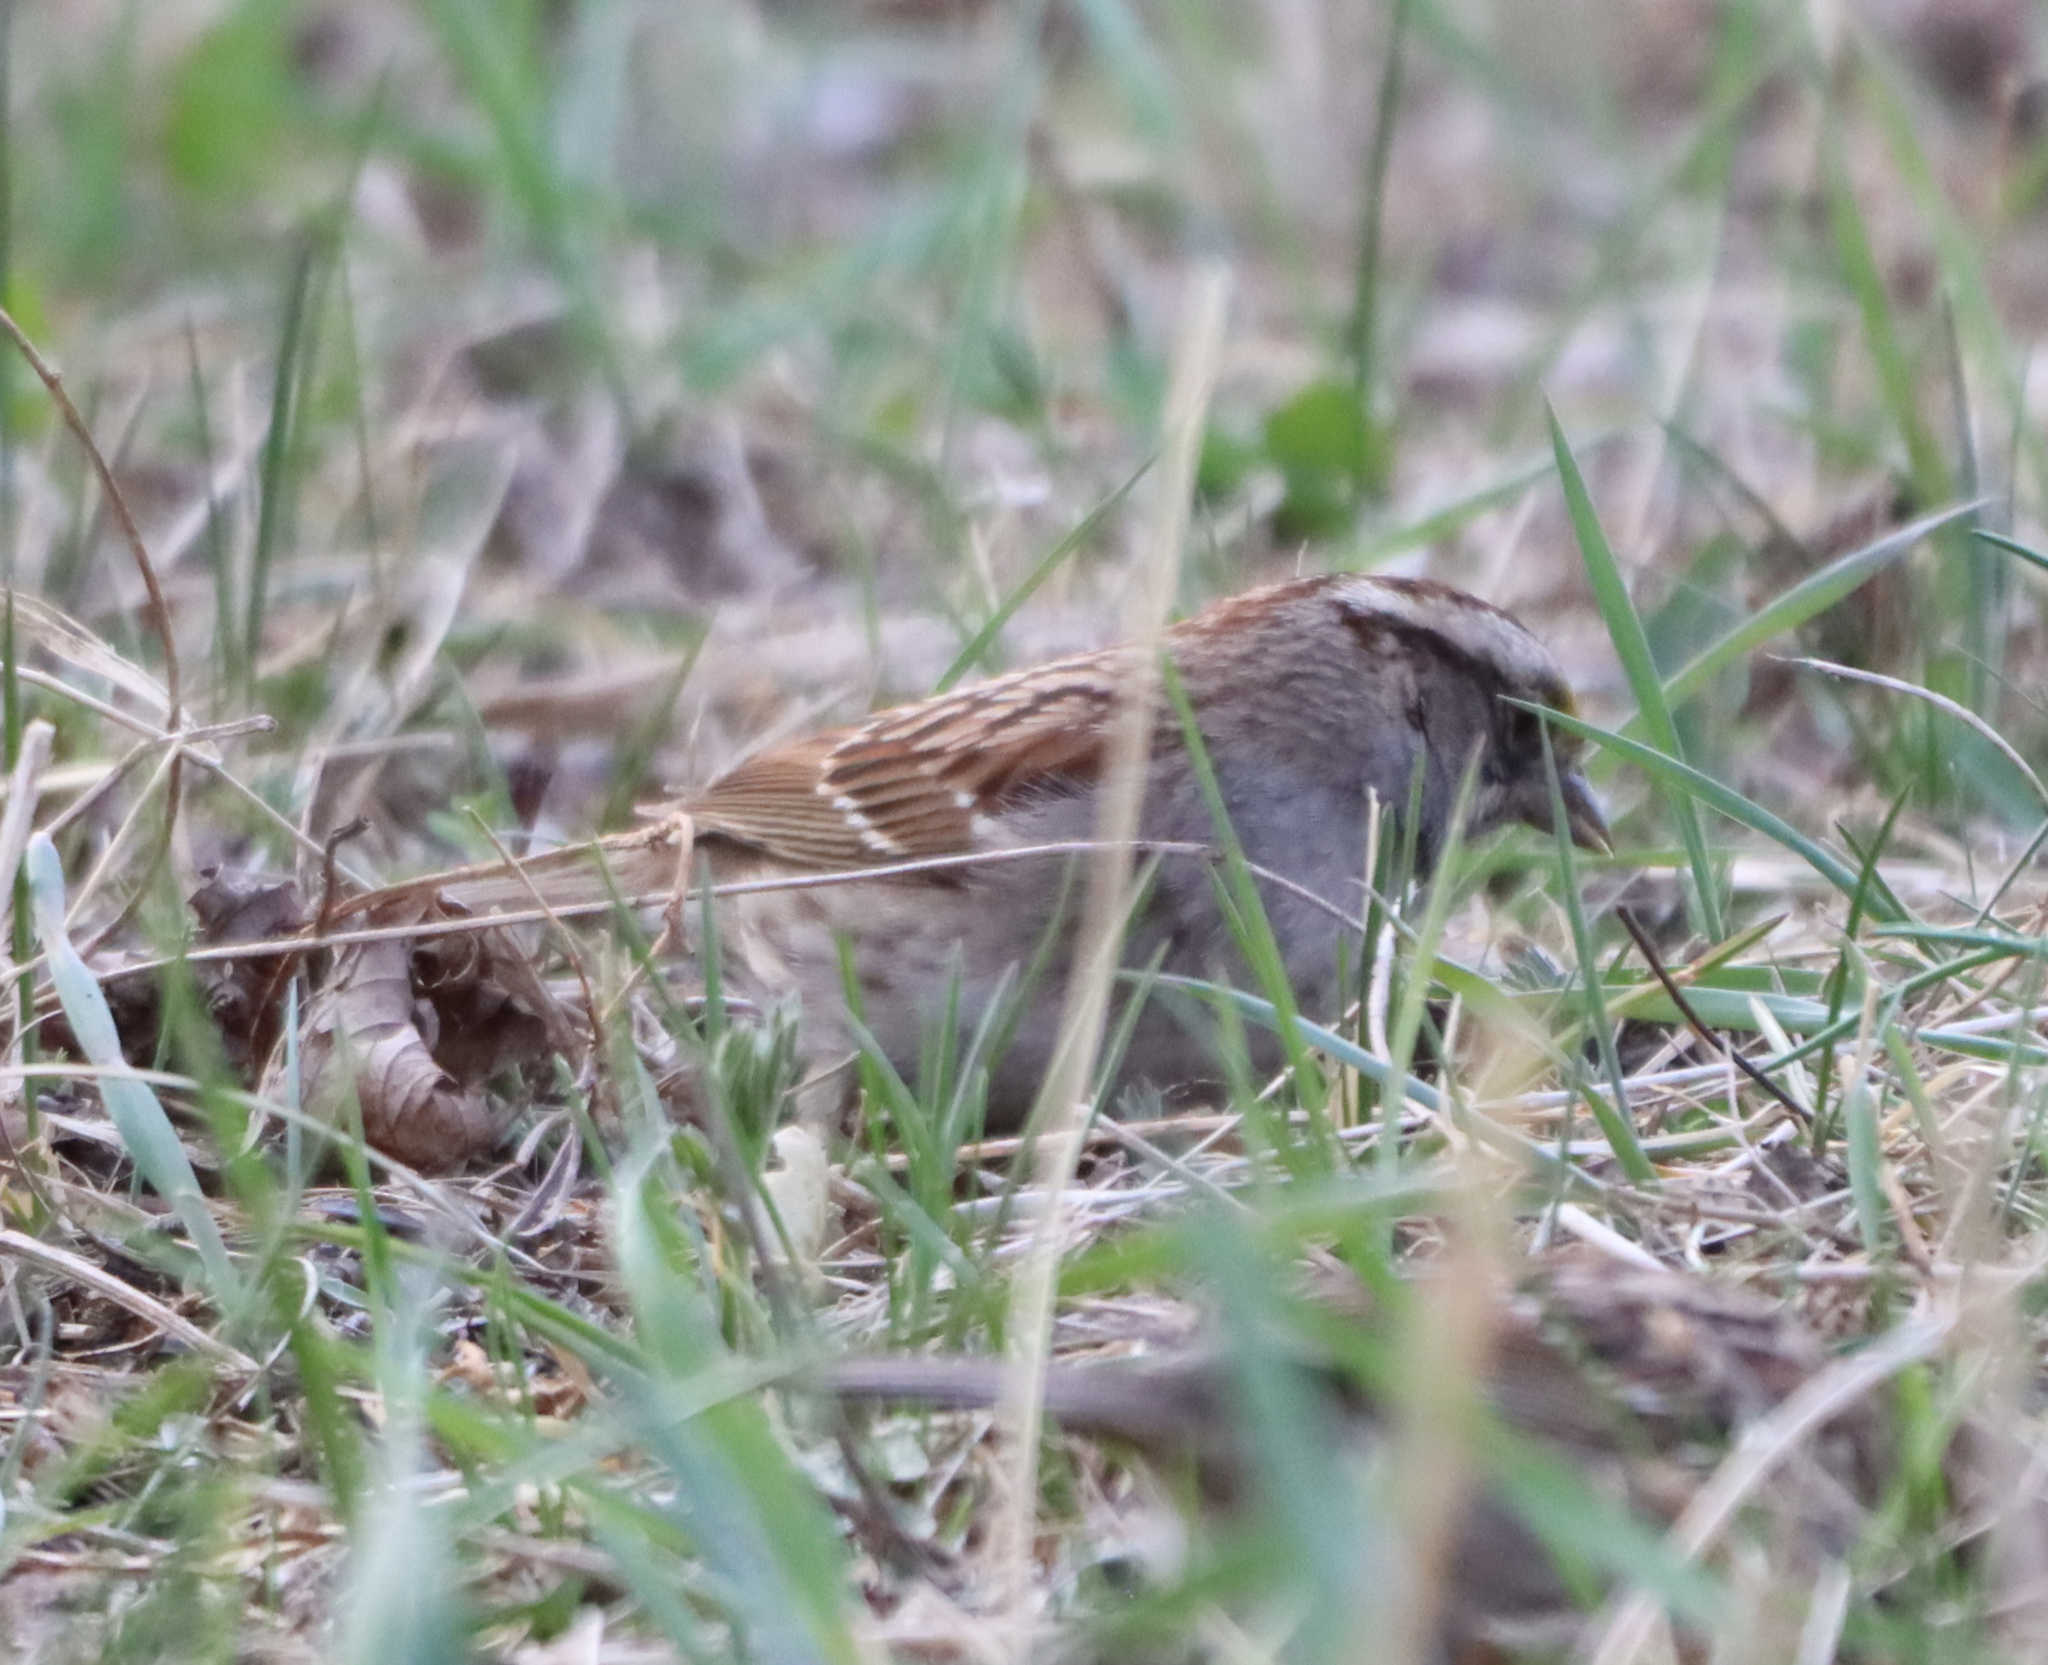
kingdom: Animalia
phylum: Chordata
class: Aves
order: Passeriformes
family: Passerellidae
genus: Zonotrichia
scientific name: Zonotrichia albicollis
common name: White-throated sparrow
